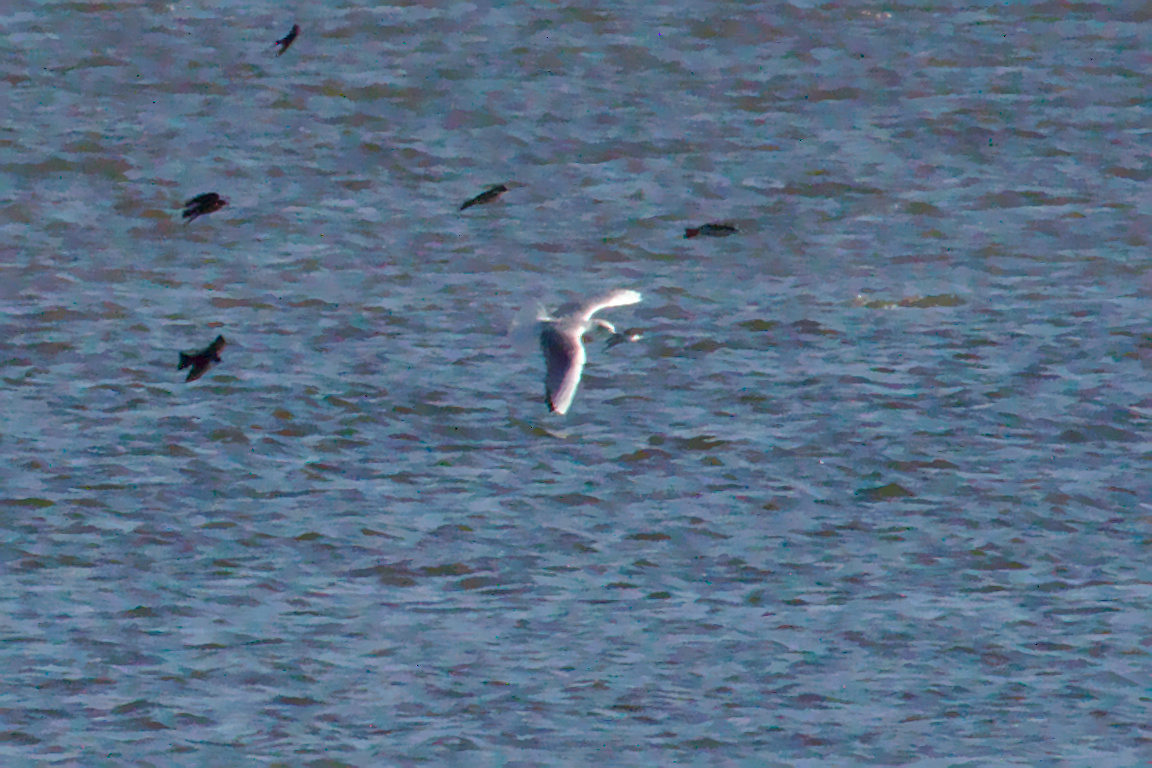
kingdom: Animalia
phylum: Chordata
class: Aves
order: Charadriiformes
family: Laridae
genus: Chroicocephalus
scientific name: Chroicocephalus philadelphia
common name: Bonaparte's gull
